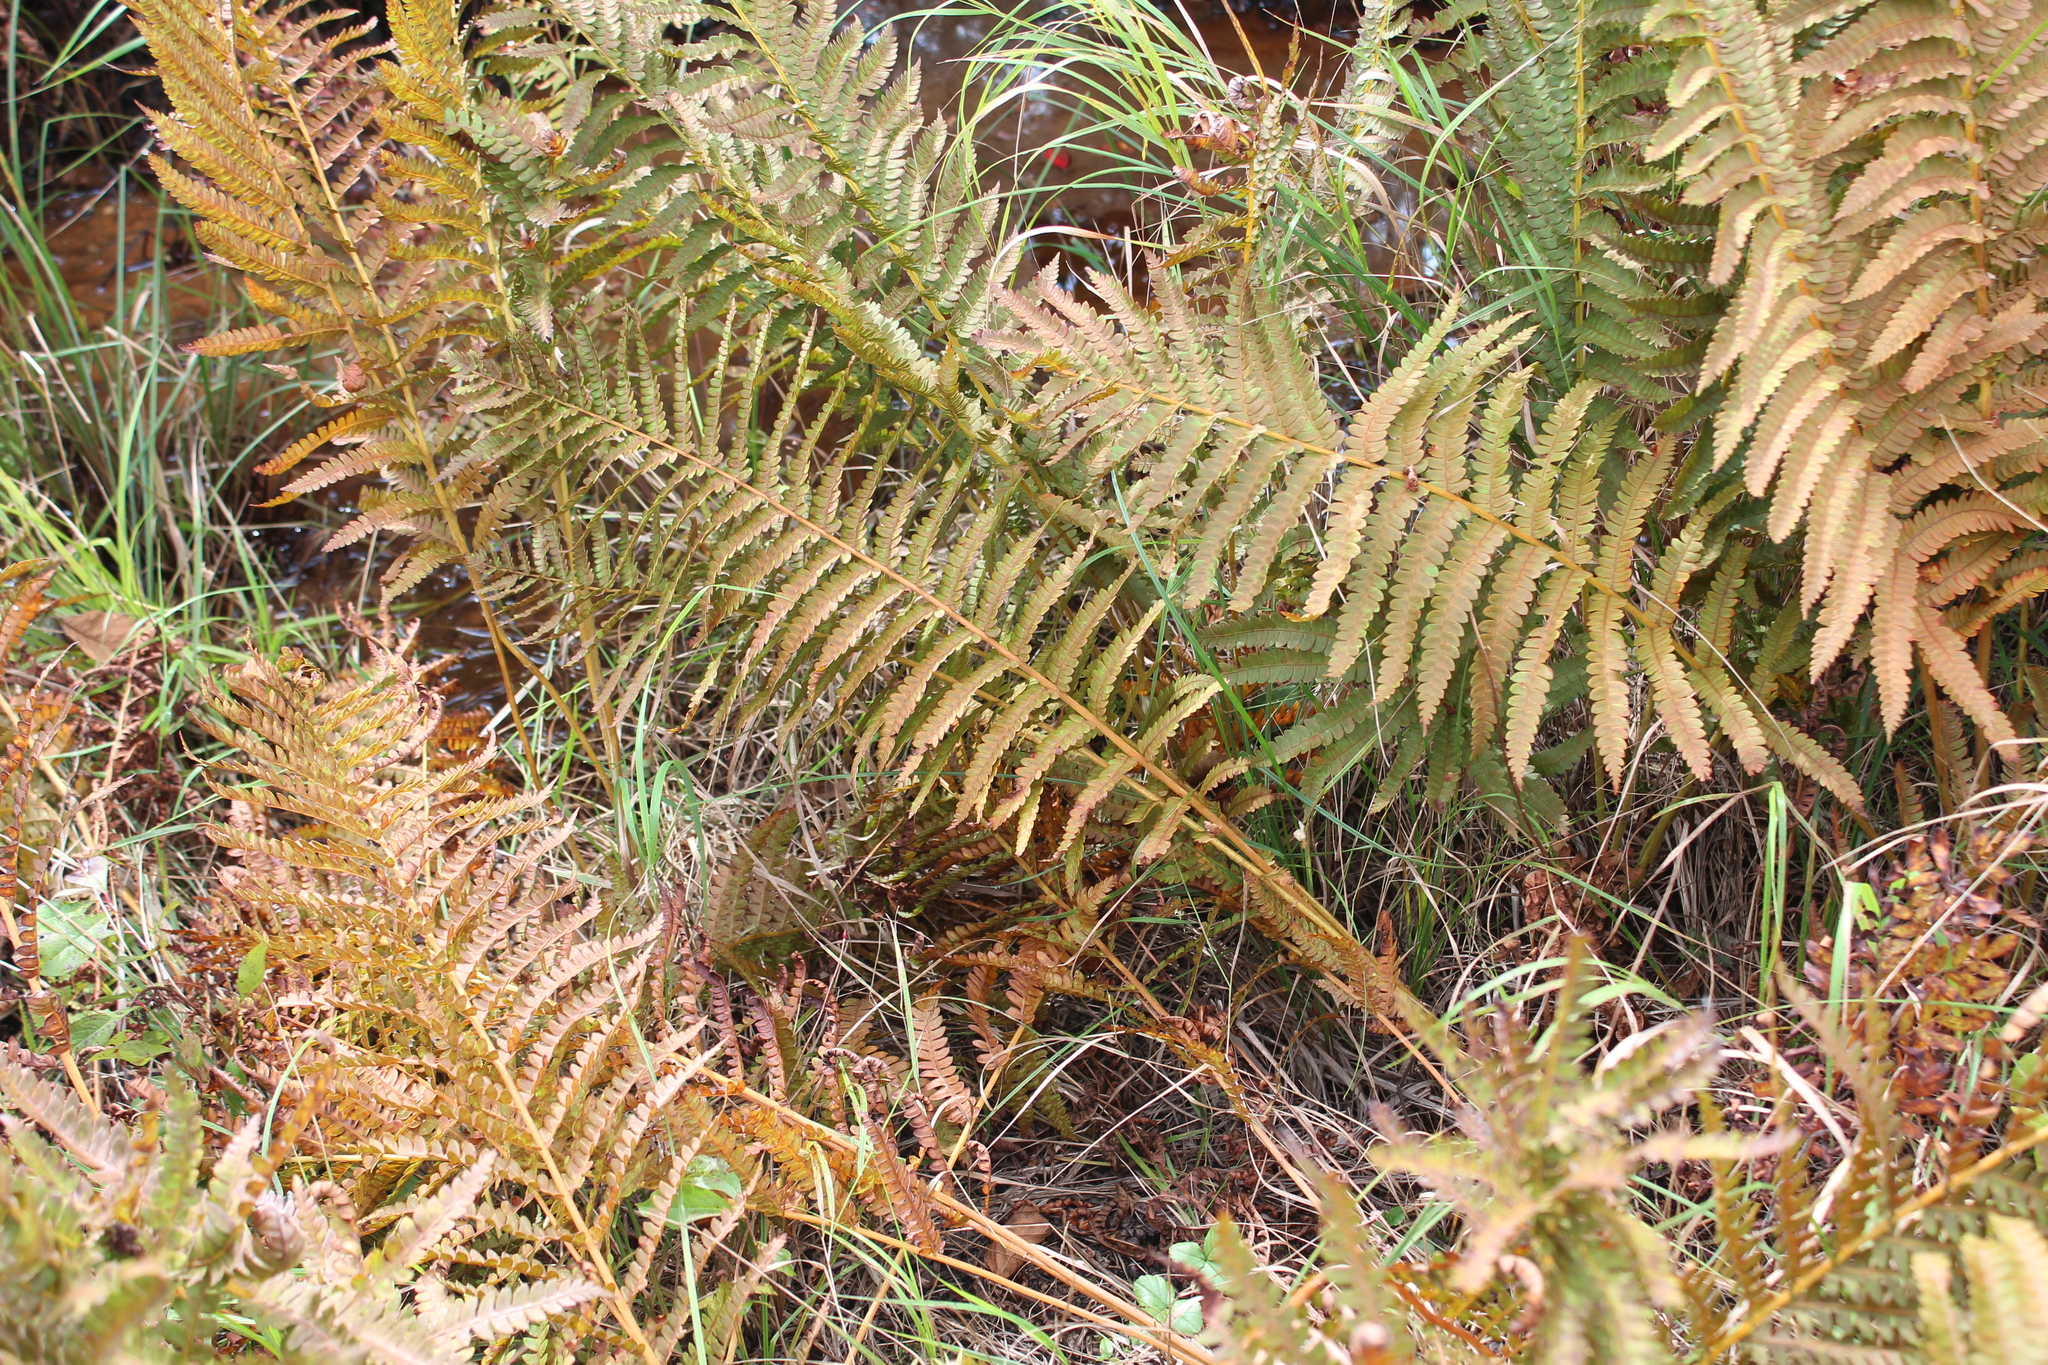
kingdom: Plantae
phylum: Tracheophyta
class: Polypodiopsida
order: Polypodiales
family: Thelypteridaceae
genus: Thelypteris
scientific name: Thelypteris palustris
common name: Marsh fern
